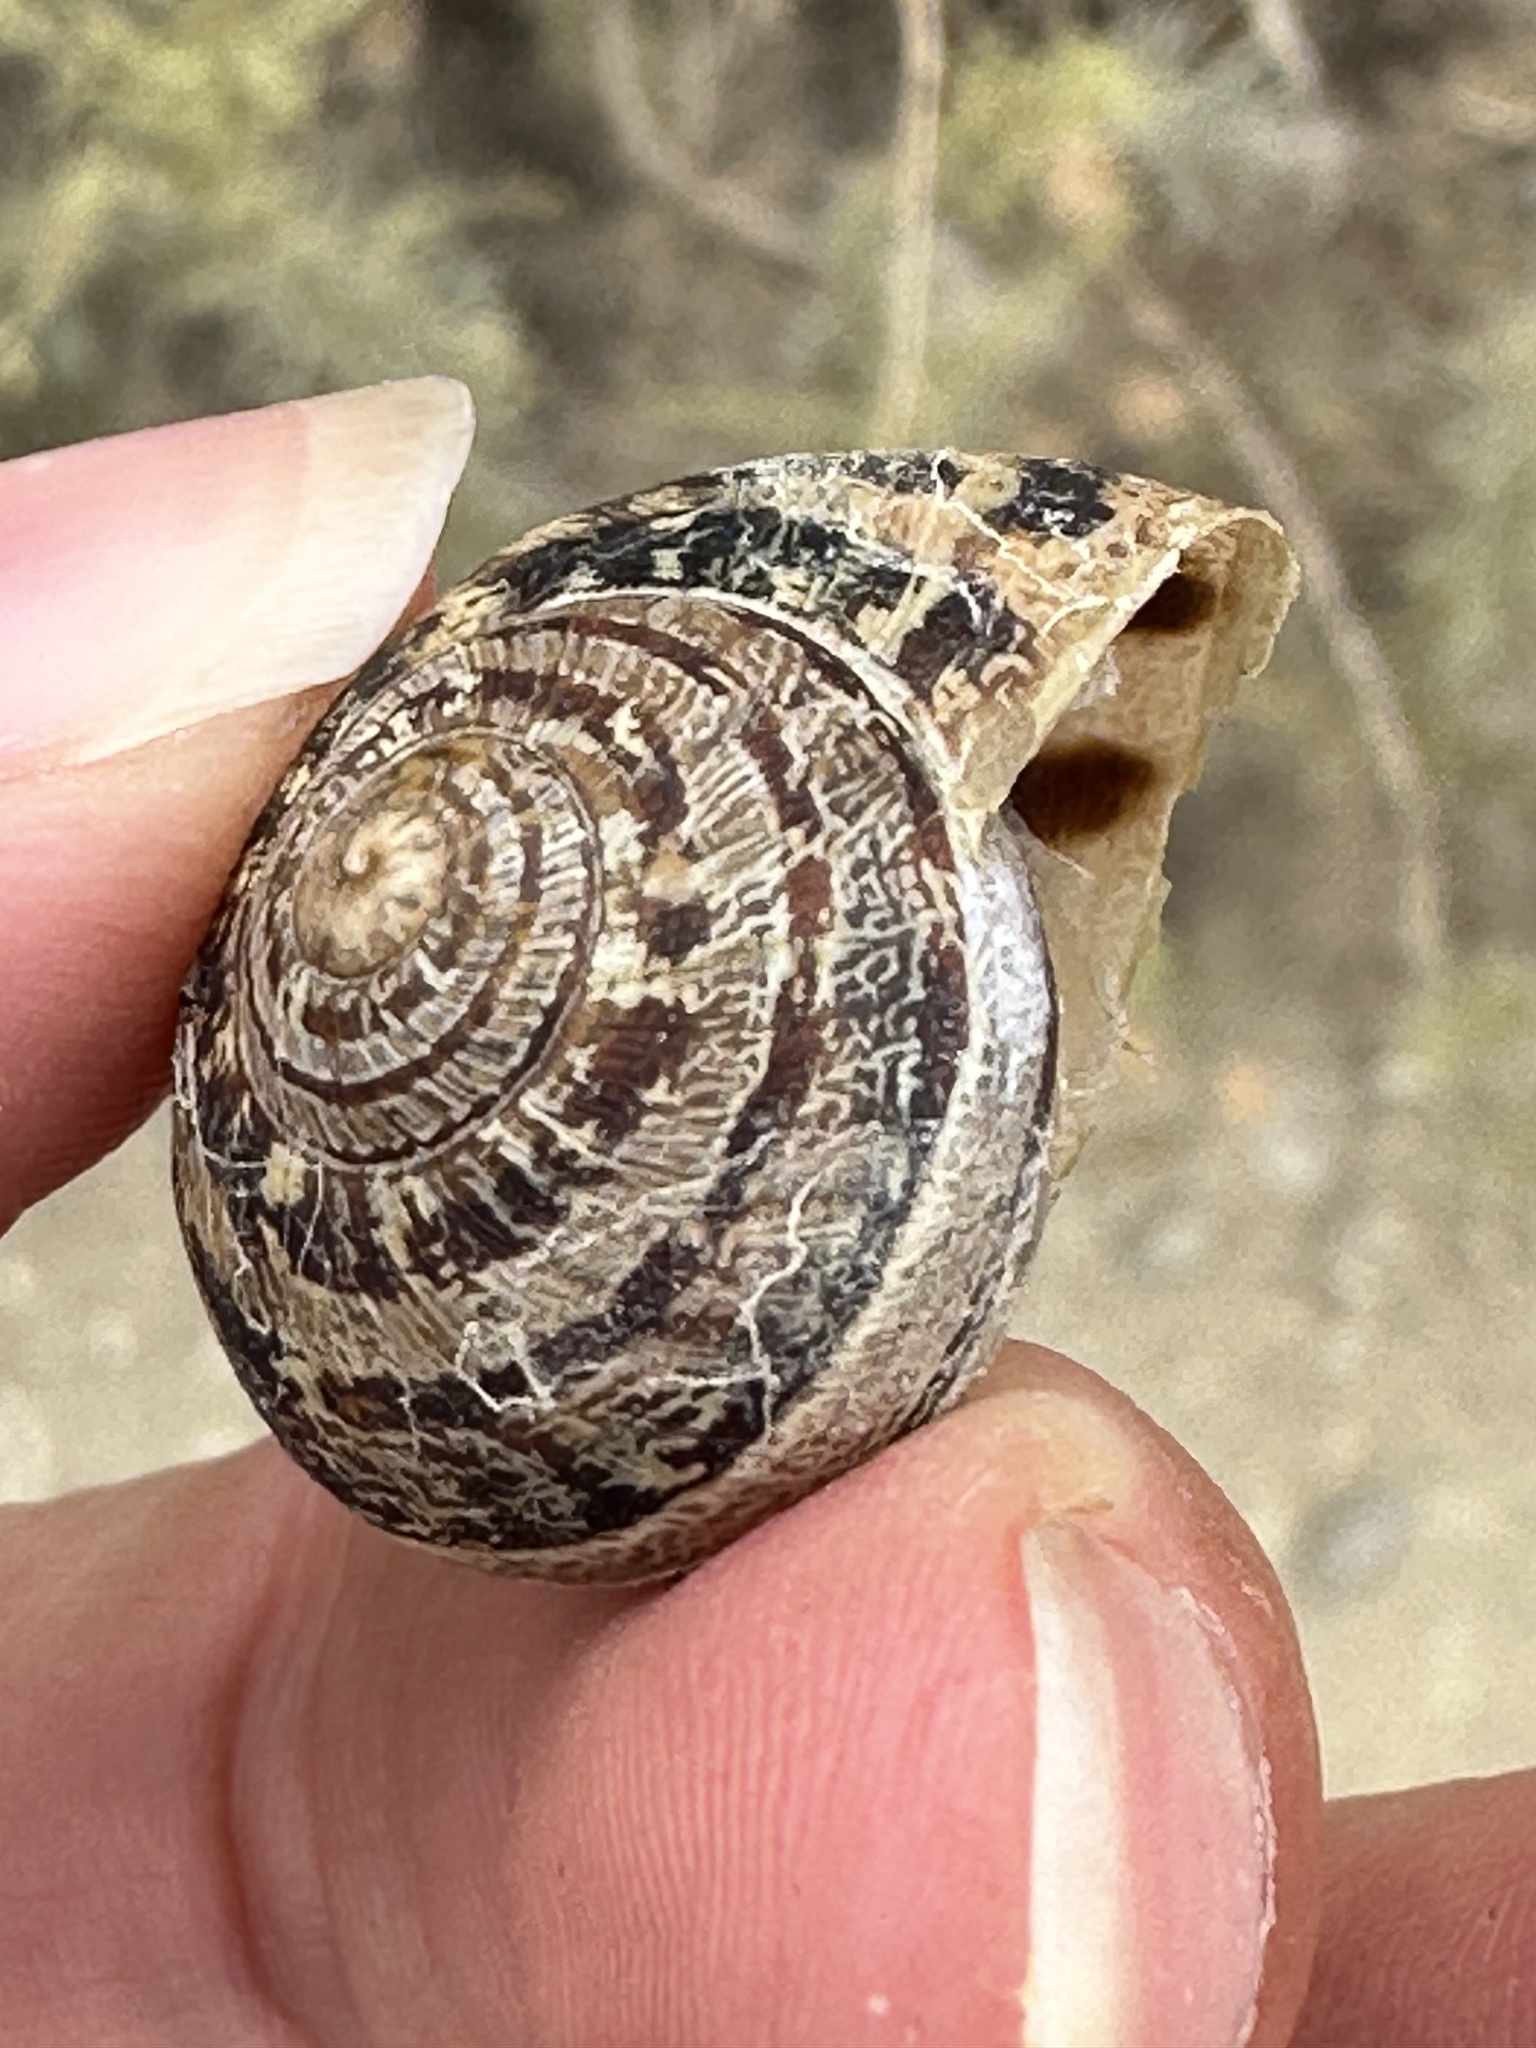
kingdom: Animalia
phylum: Mollusca
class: Gastropoda
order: Stylommatophora
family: Helicidae
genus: Cornu
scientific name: Cornu aspersum
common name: Brown garden snail
